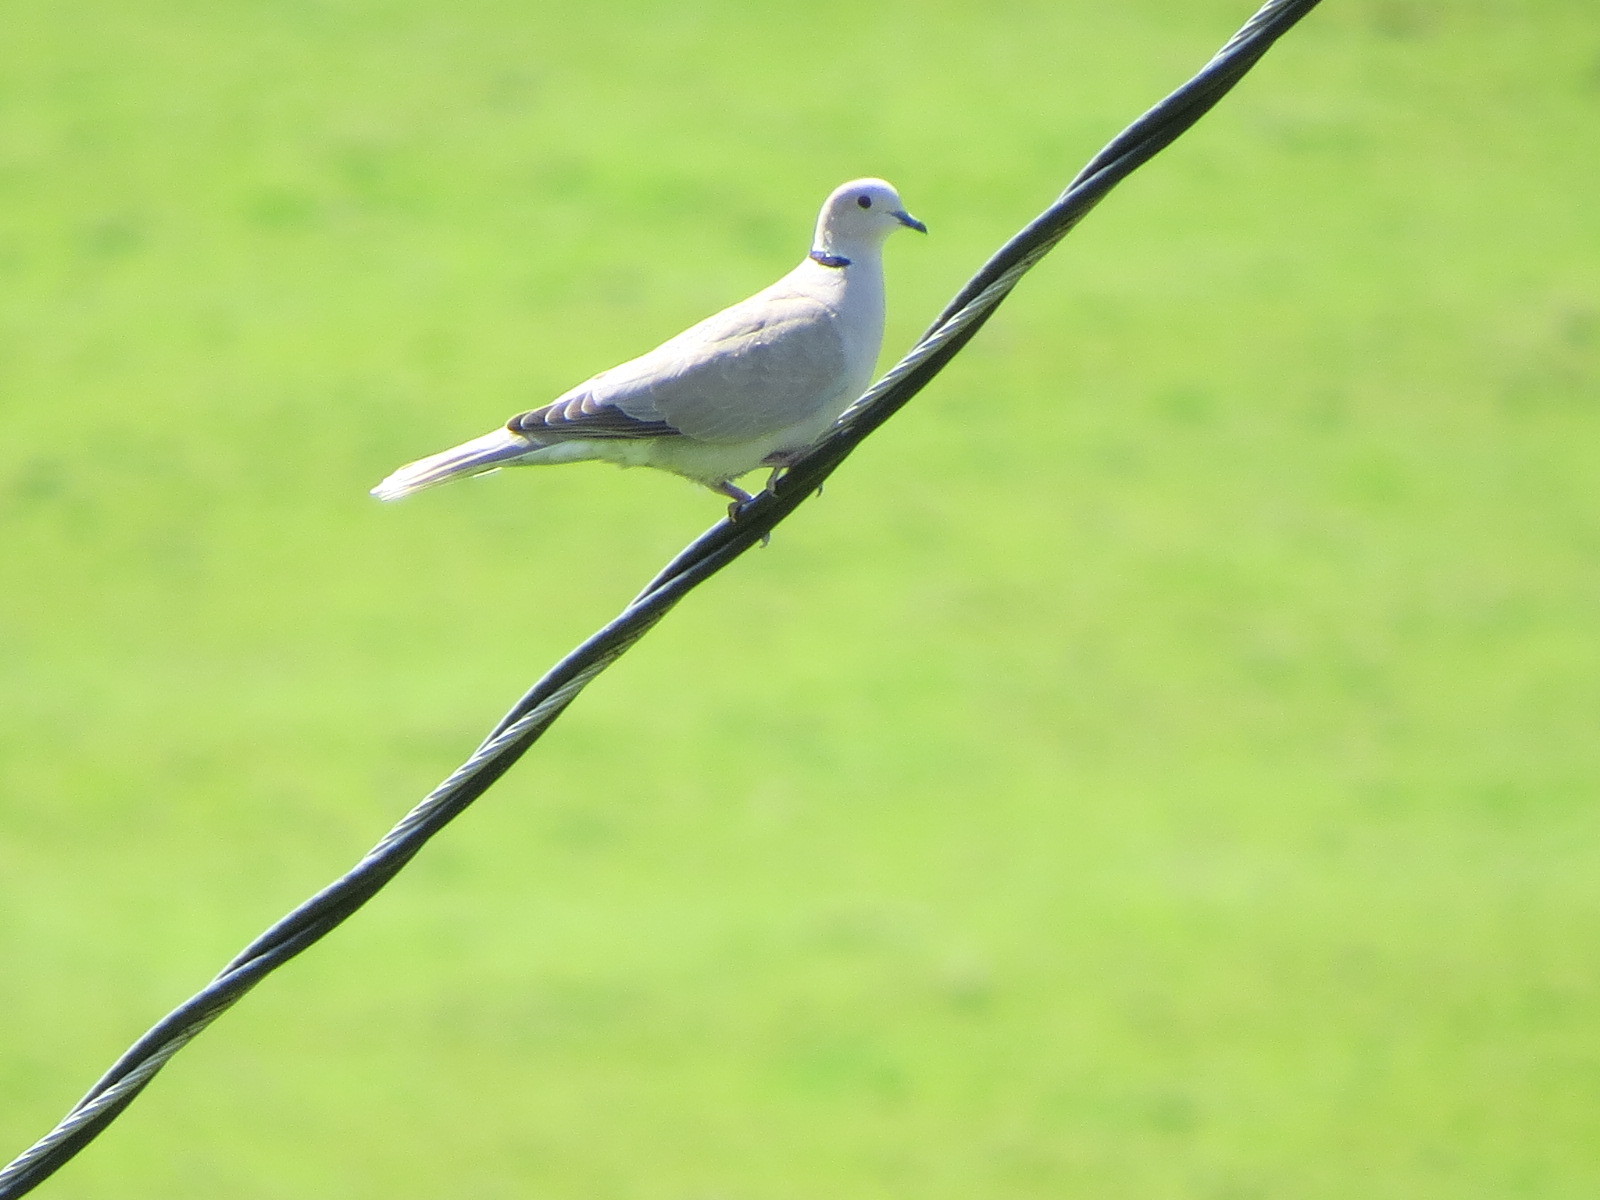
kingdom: Animalia
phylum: Chordata
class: Aves
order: Columbiformes
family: Columbidae
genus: Streptopelia
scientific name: Streptopelia decaocto
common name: Eurasian collared dove
